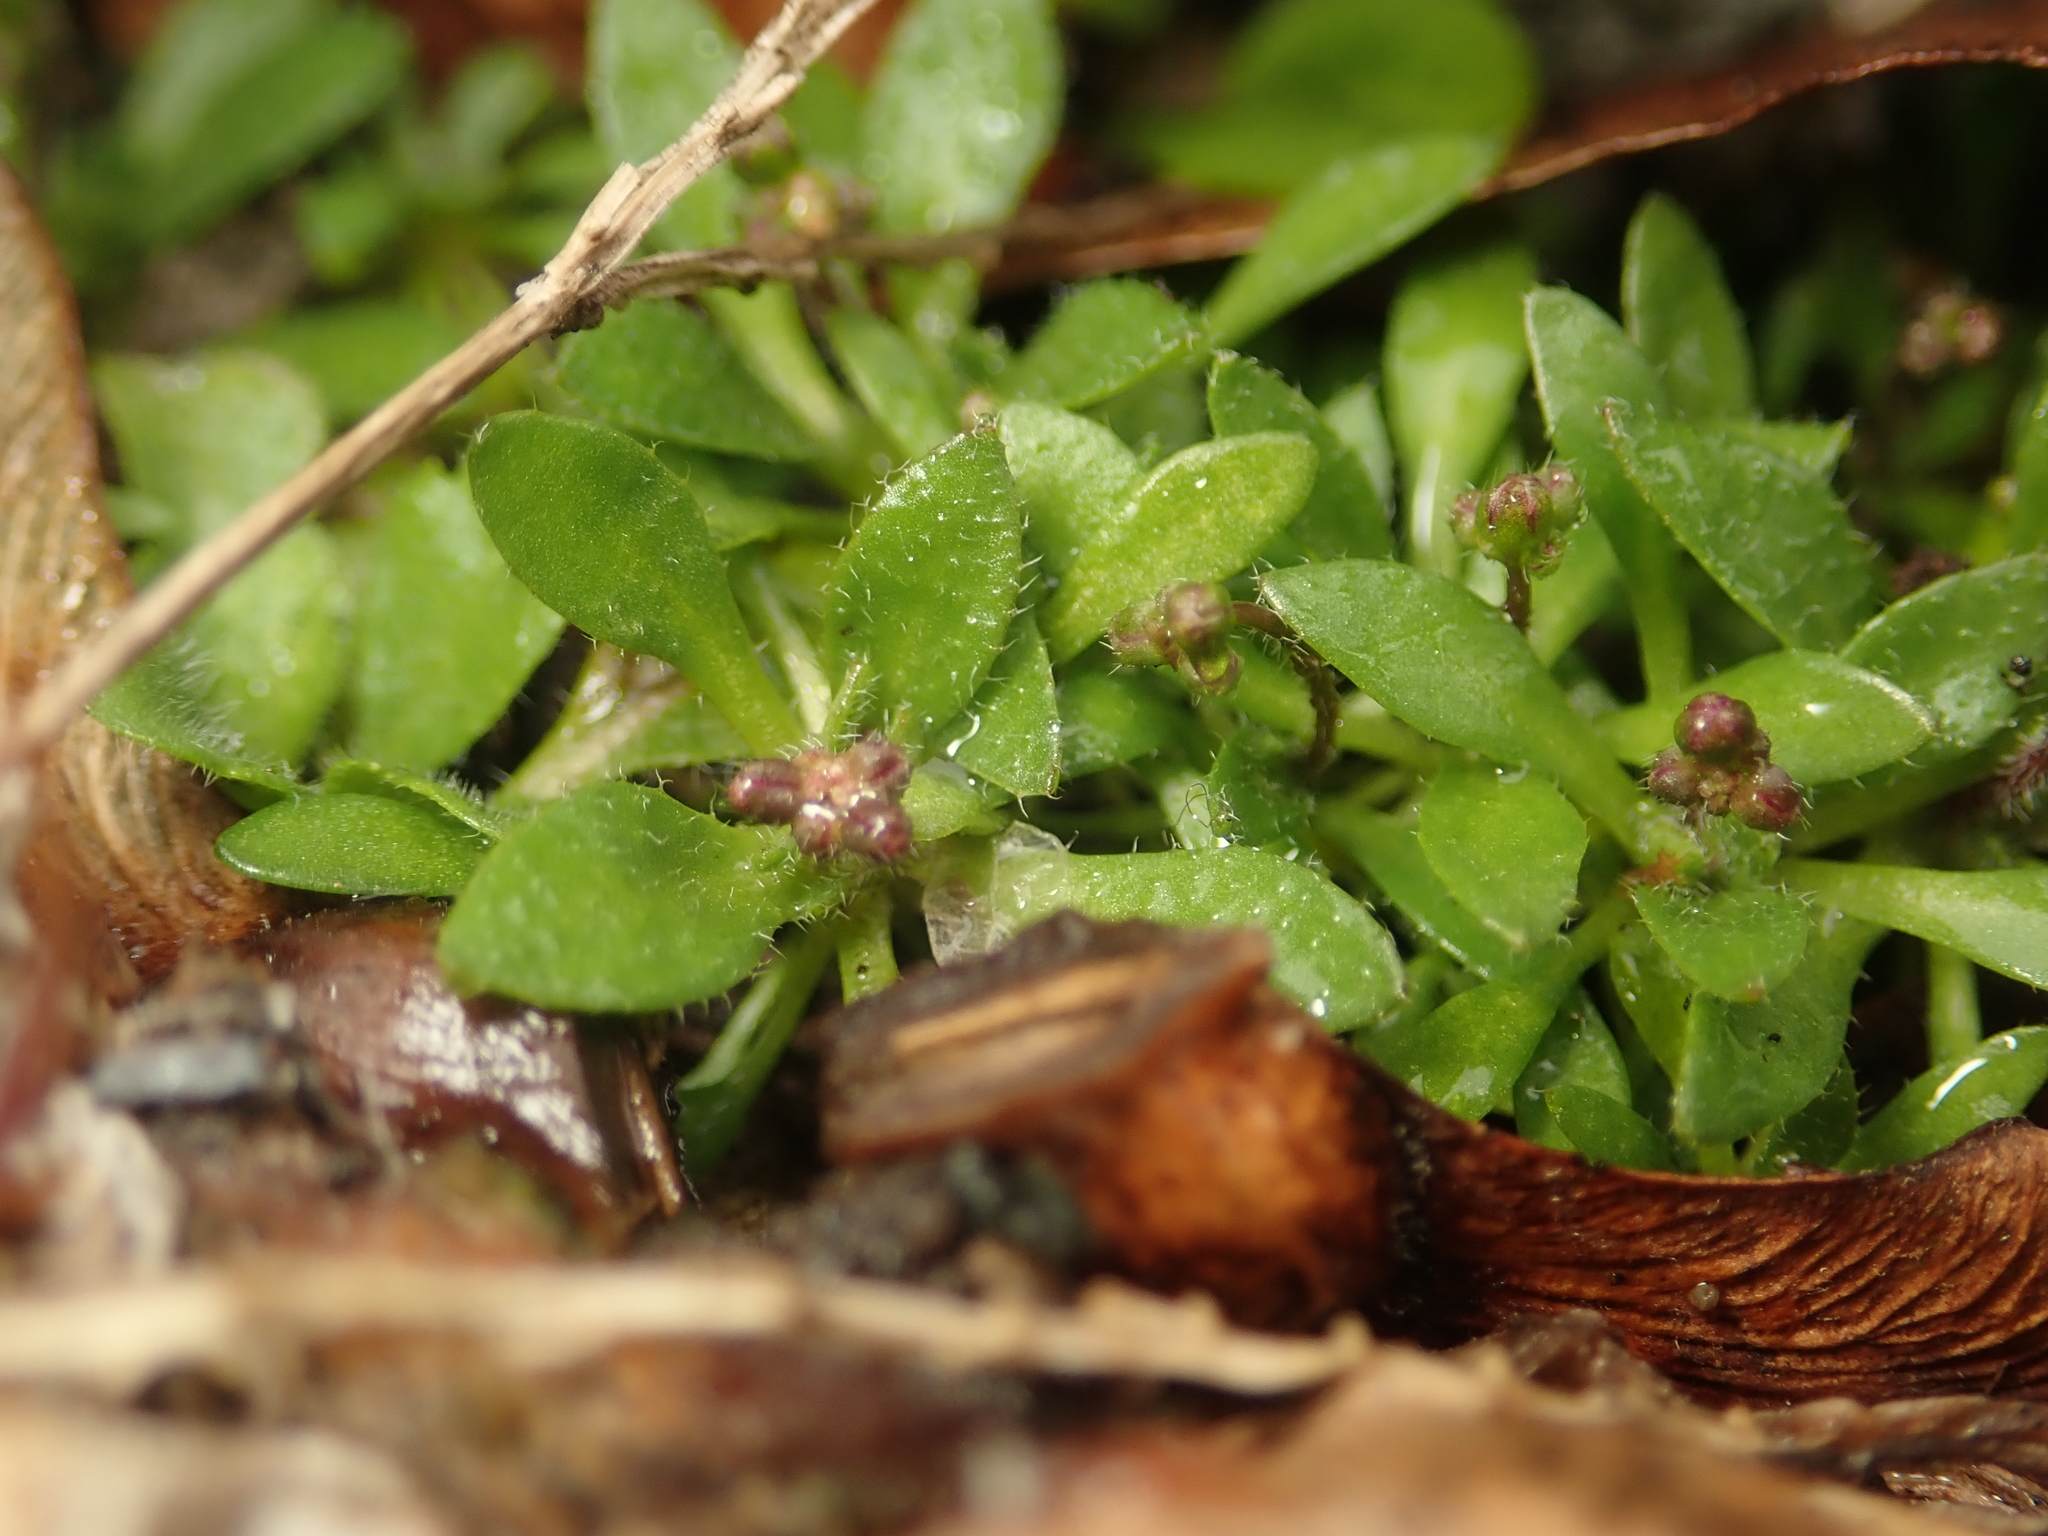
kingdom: Plantae
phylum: Tracheophyta
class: Magnoliopsida
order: Brassicales
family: Brassicaceae
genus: Draba
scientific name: Draba verna
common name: Spring draba
